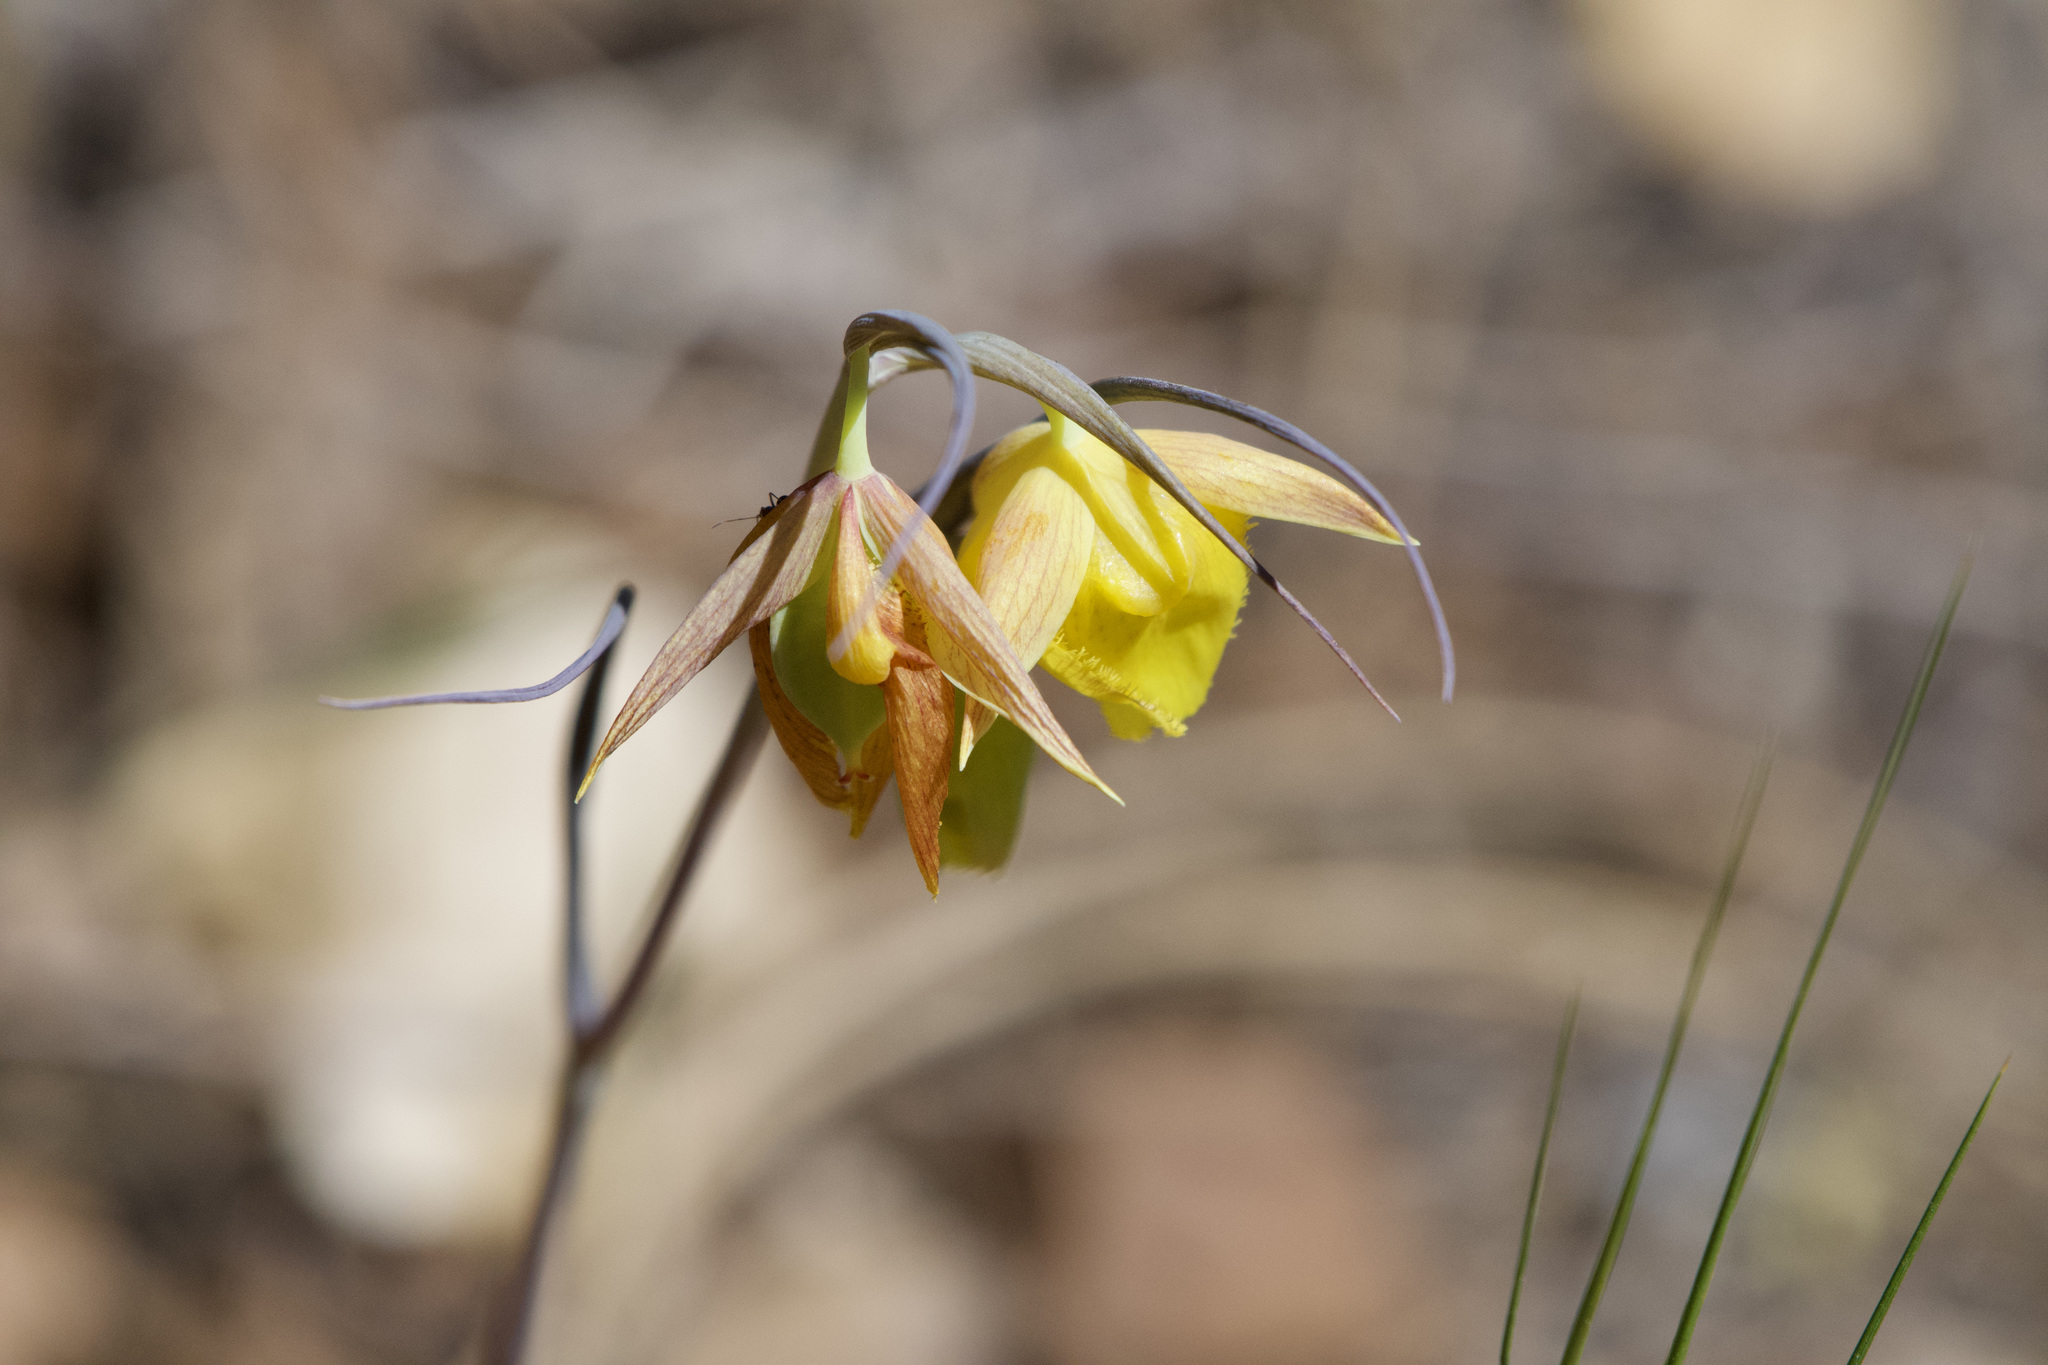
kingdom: Plantae
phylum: Tracheophyta
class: Liliopsida
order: Liliales
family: Liliaceae
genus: Calochortus
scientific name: Calochortus pulchellus
